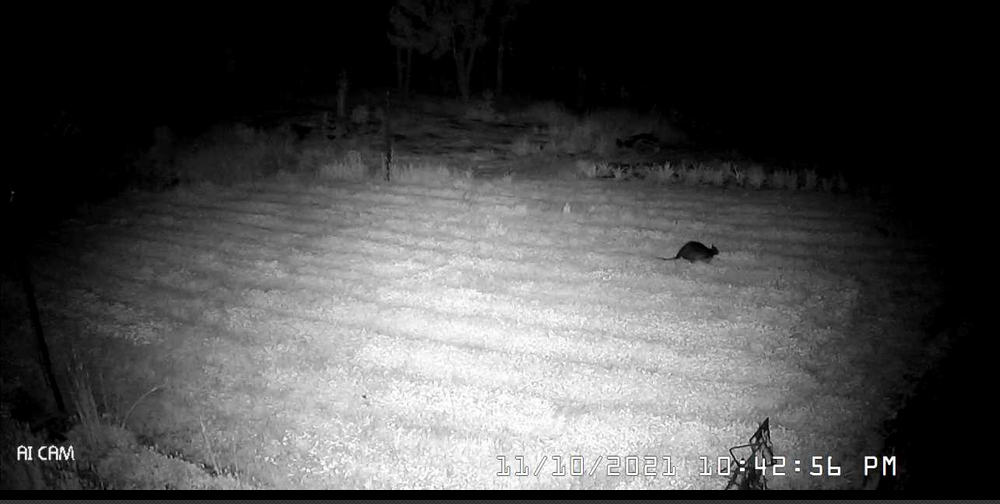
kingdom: Animalia
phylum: Chordata
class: Mammalia
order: Diprotodontia
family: Macropodidae
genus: Wallabia
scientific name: Wallabia bicolor
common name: Swamp wallaby
